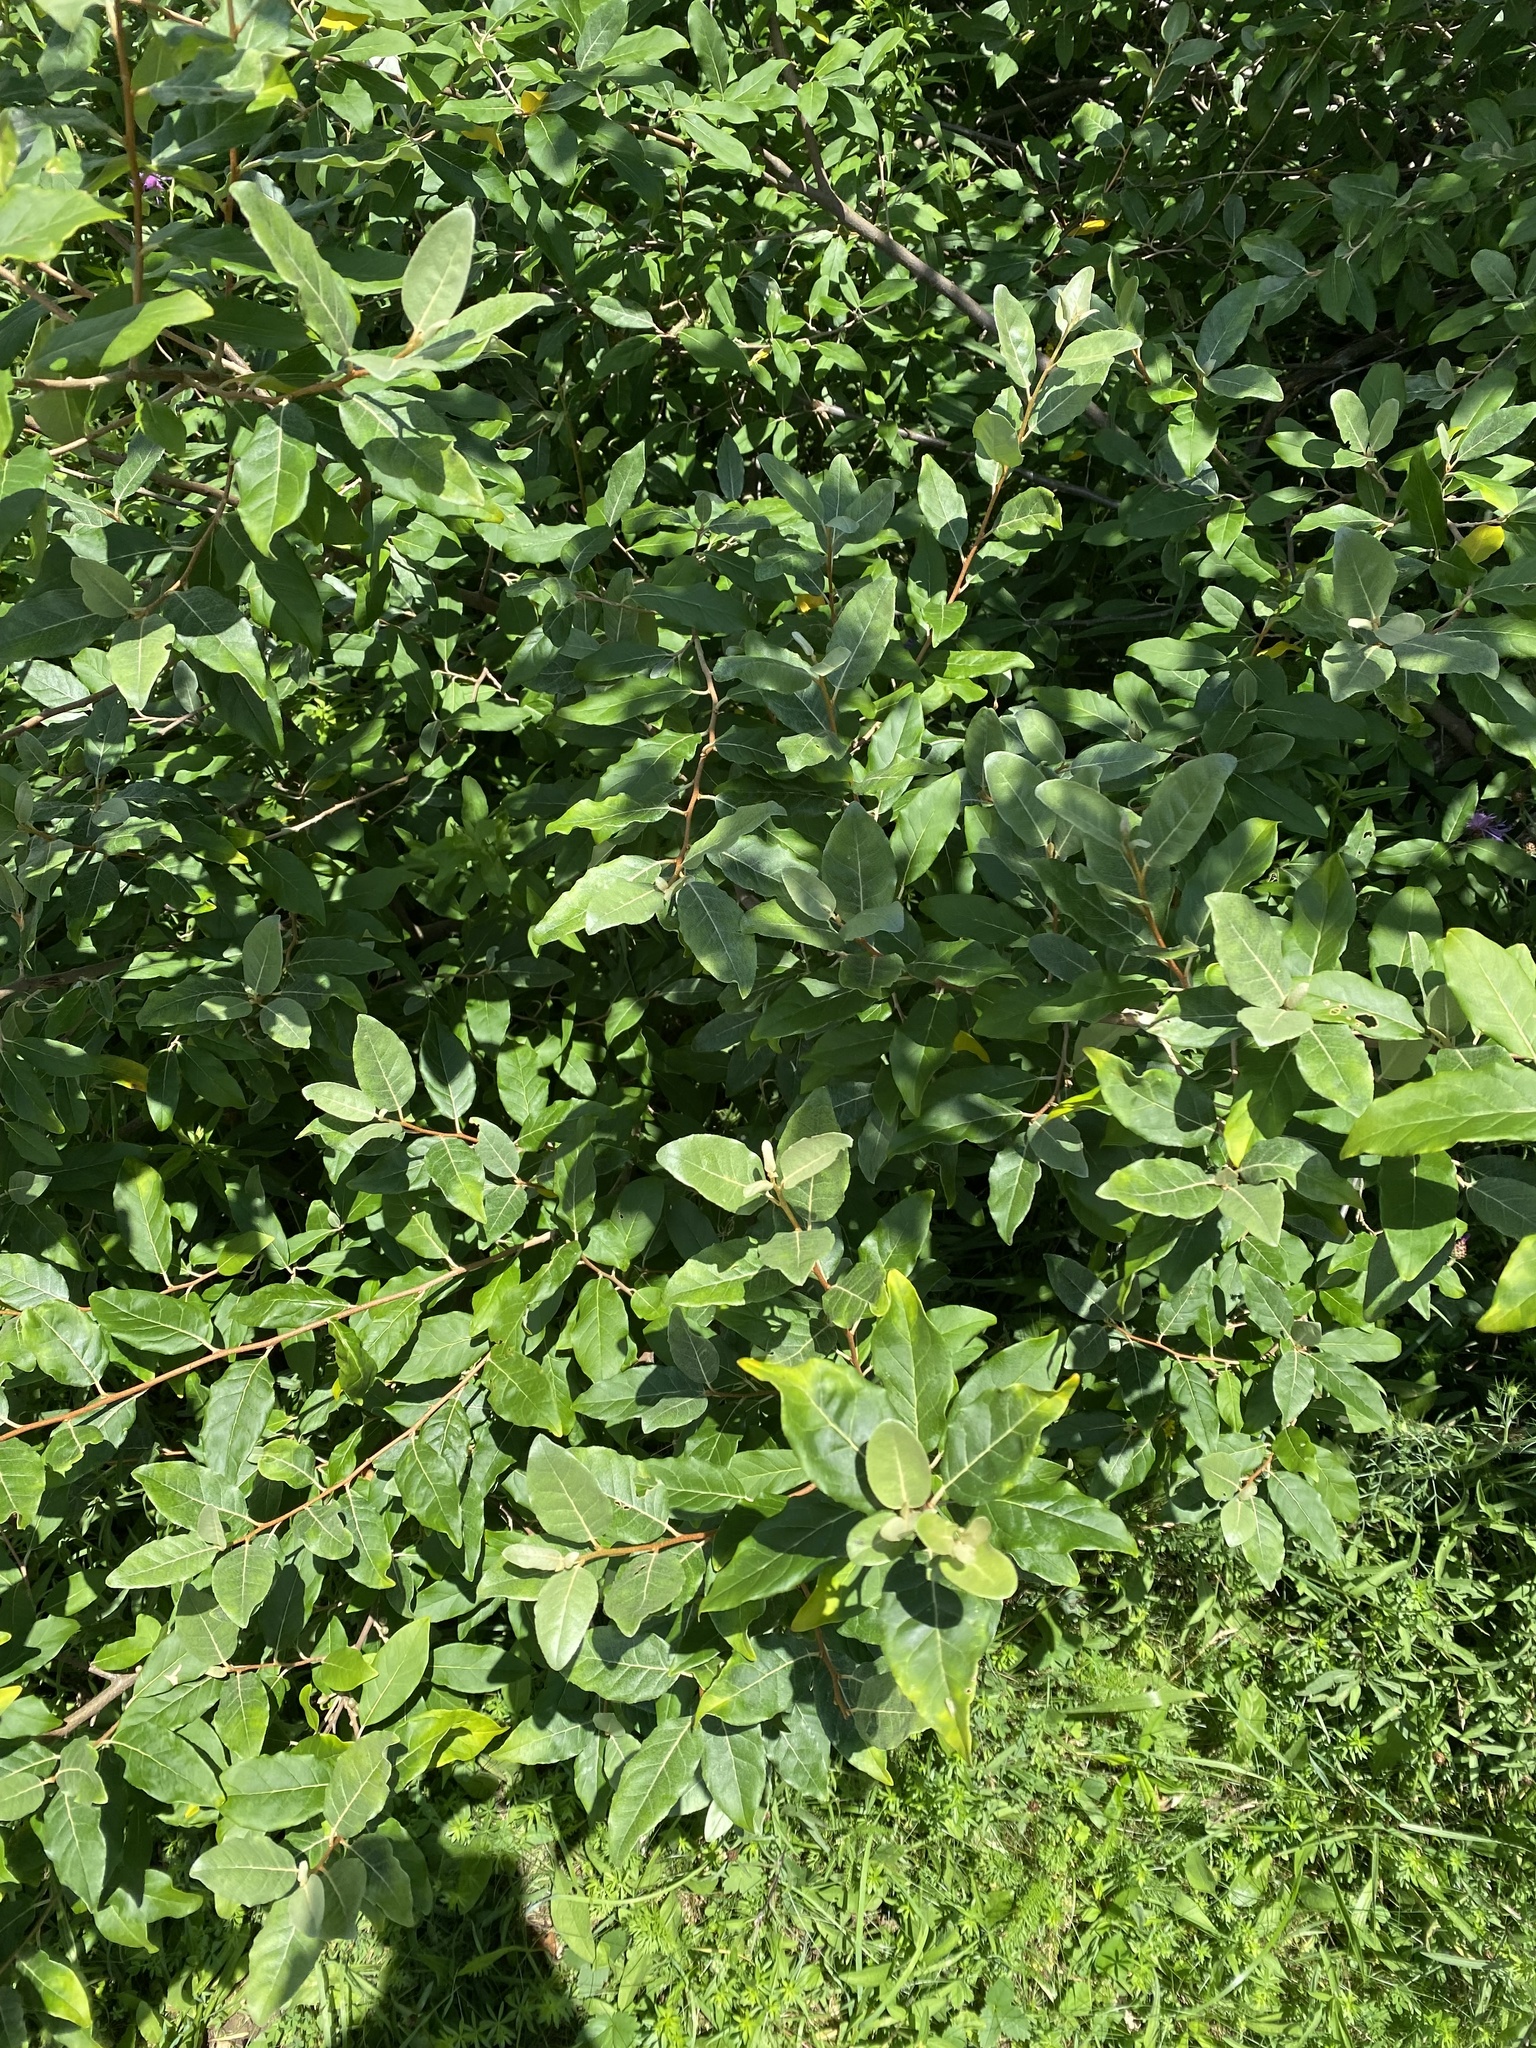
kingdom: Plantae
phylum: Tracheophyta
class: Magnoliopsida
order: Rosales
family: Elaeagnaceae
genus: Elaeagnus
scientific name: Elaeagnus umbellata
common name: Autumn olive
